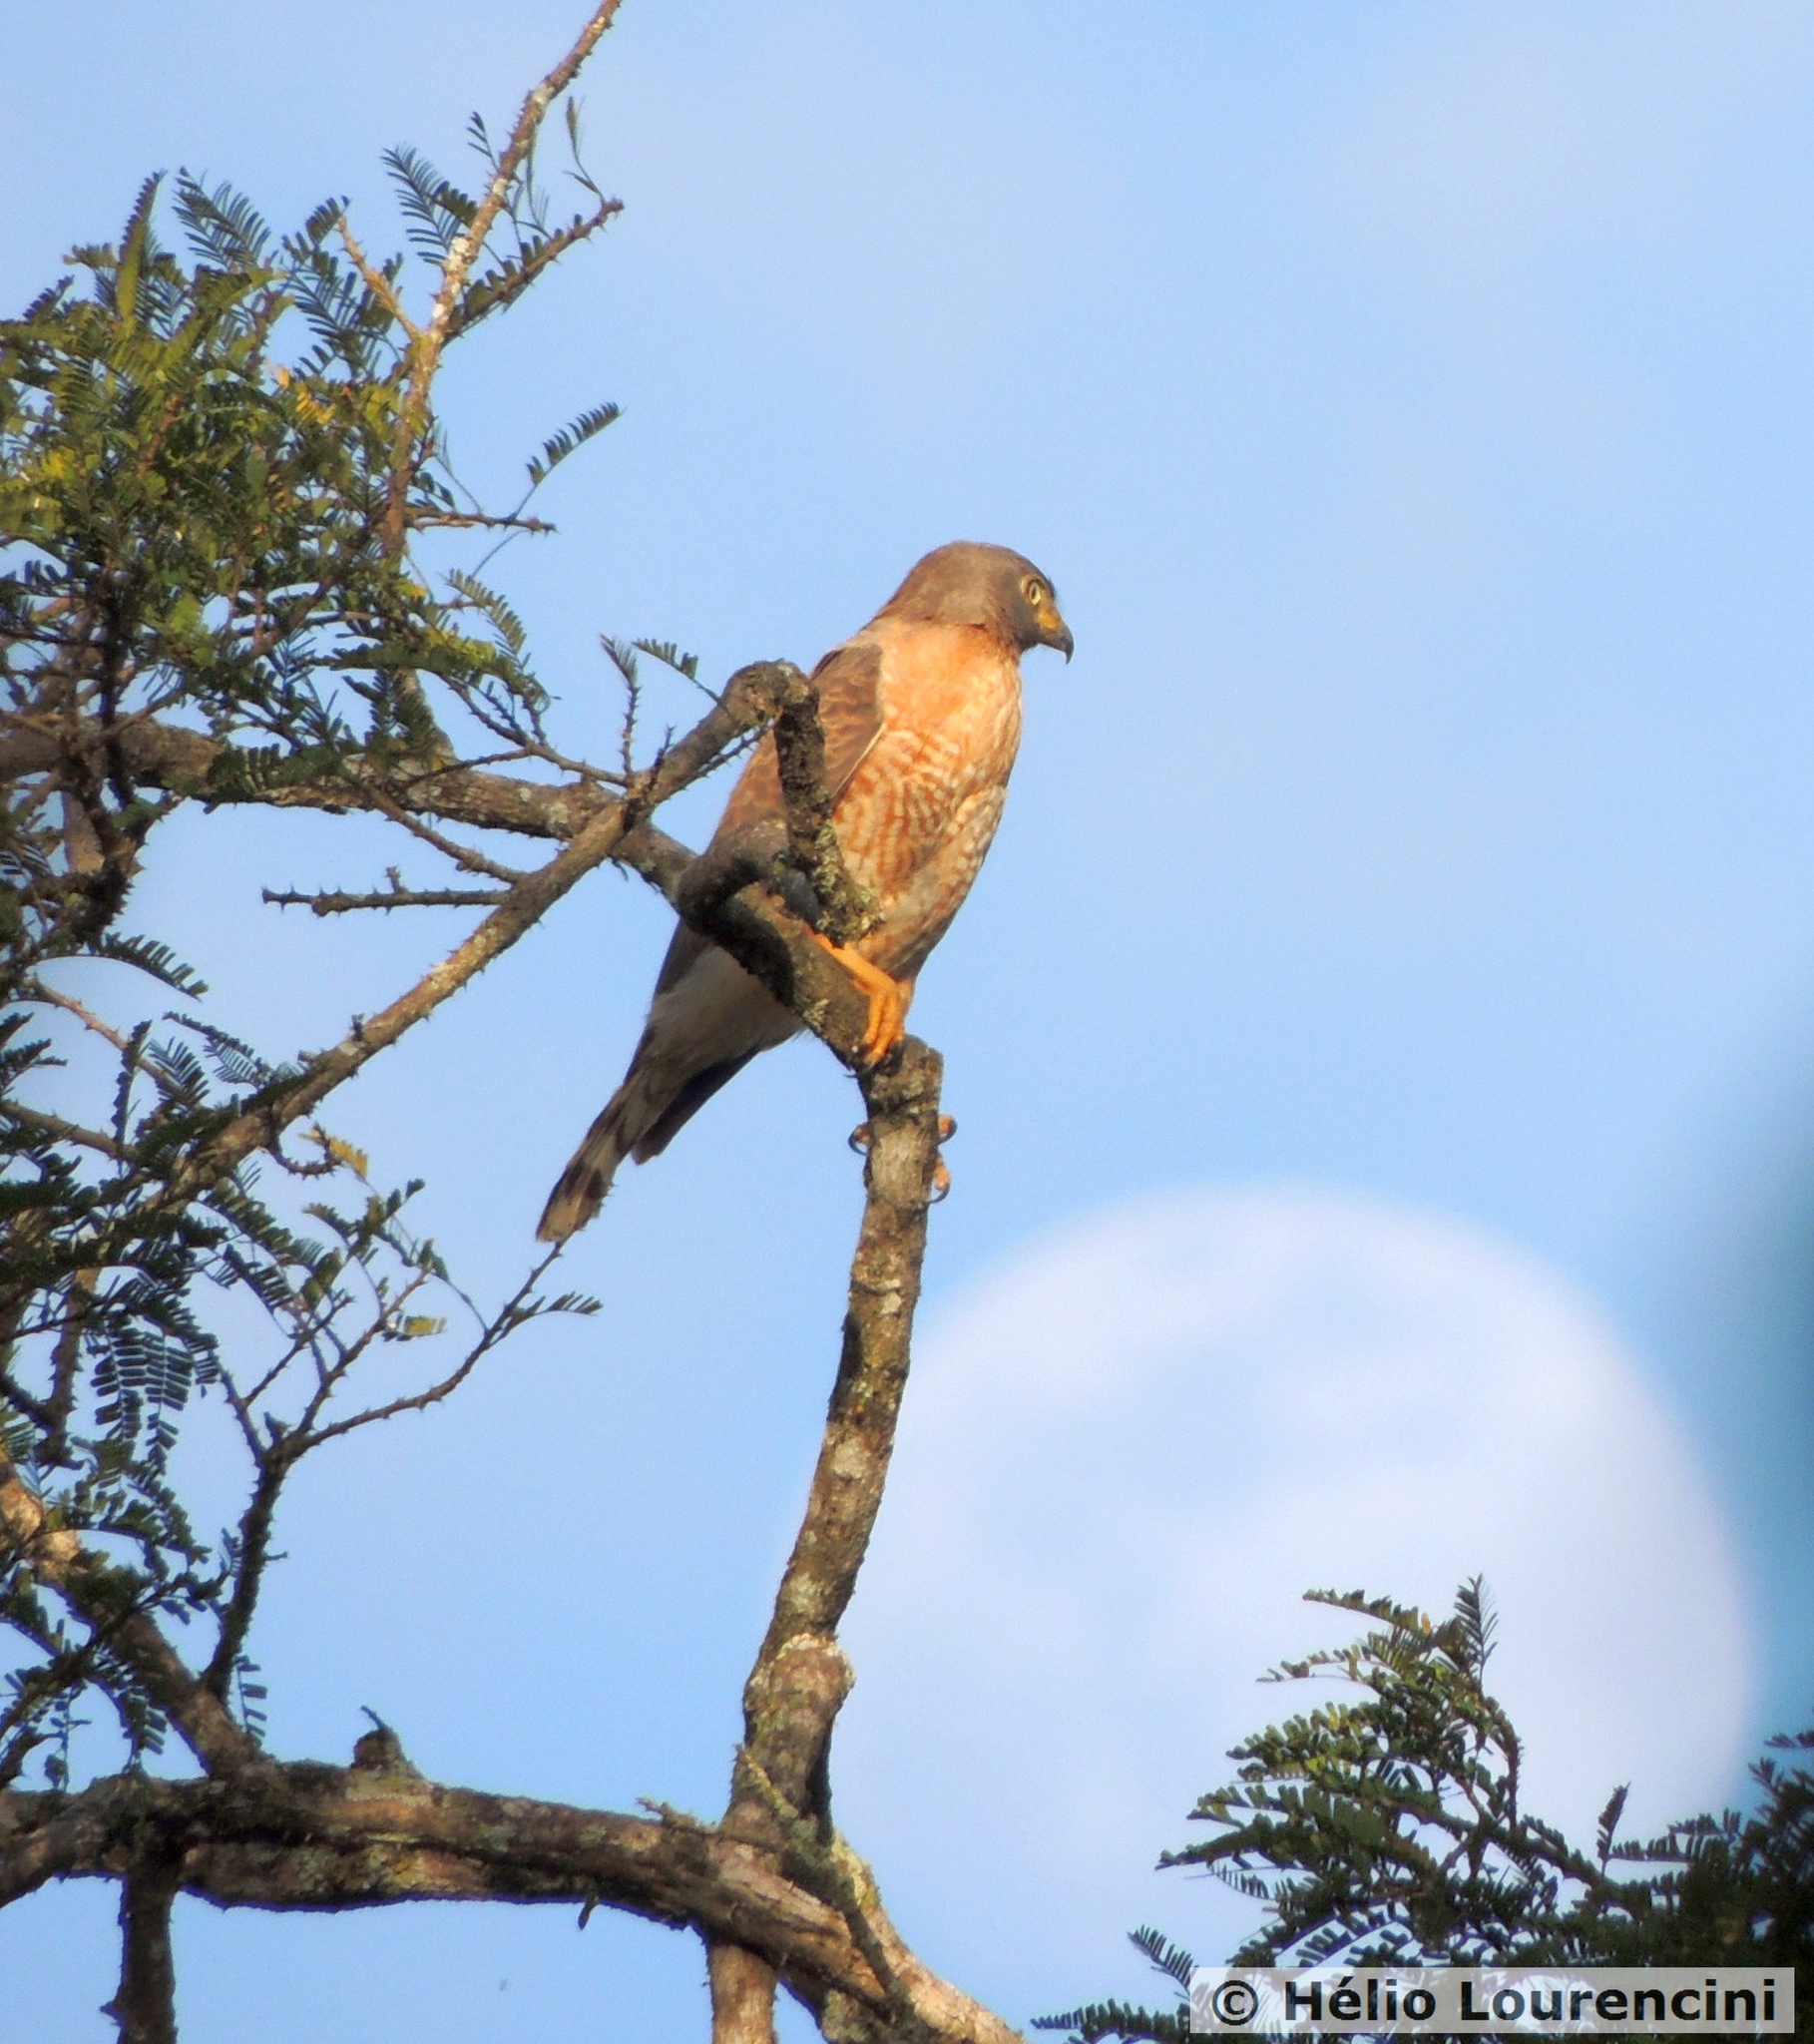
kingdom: Animalia
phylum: Chordata
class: Aves
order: Accipitriformes
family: Accipitridae
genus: Rupornis
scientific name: Rupornis magnirostris
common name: Roadside hawk
